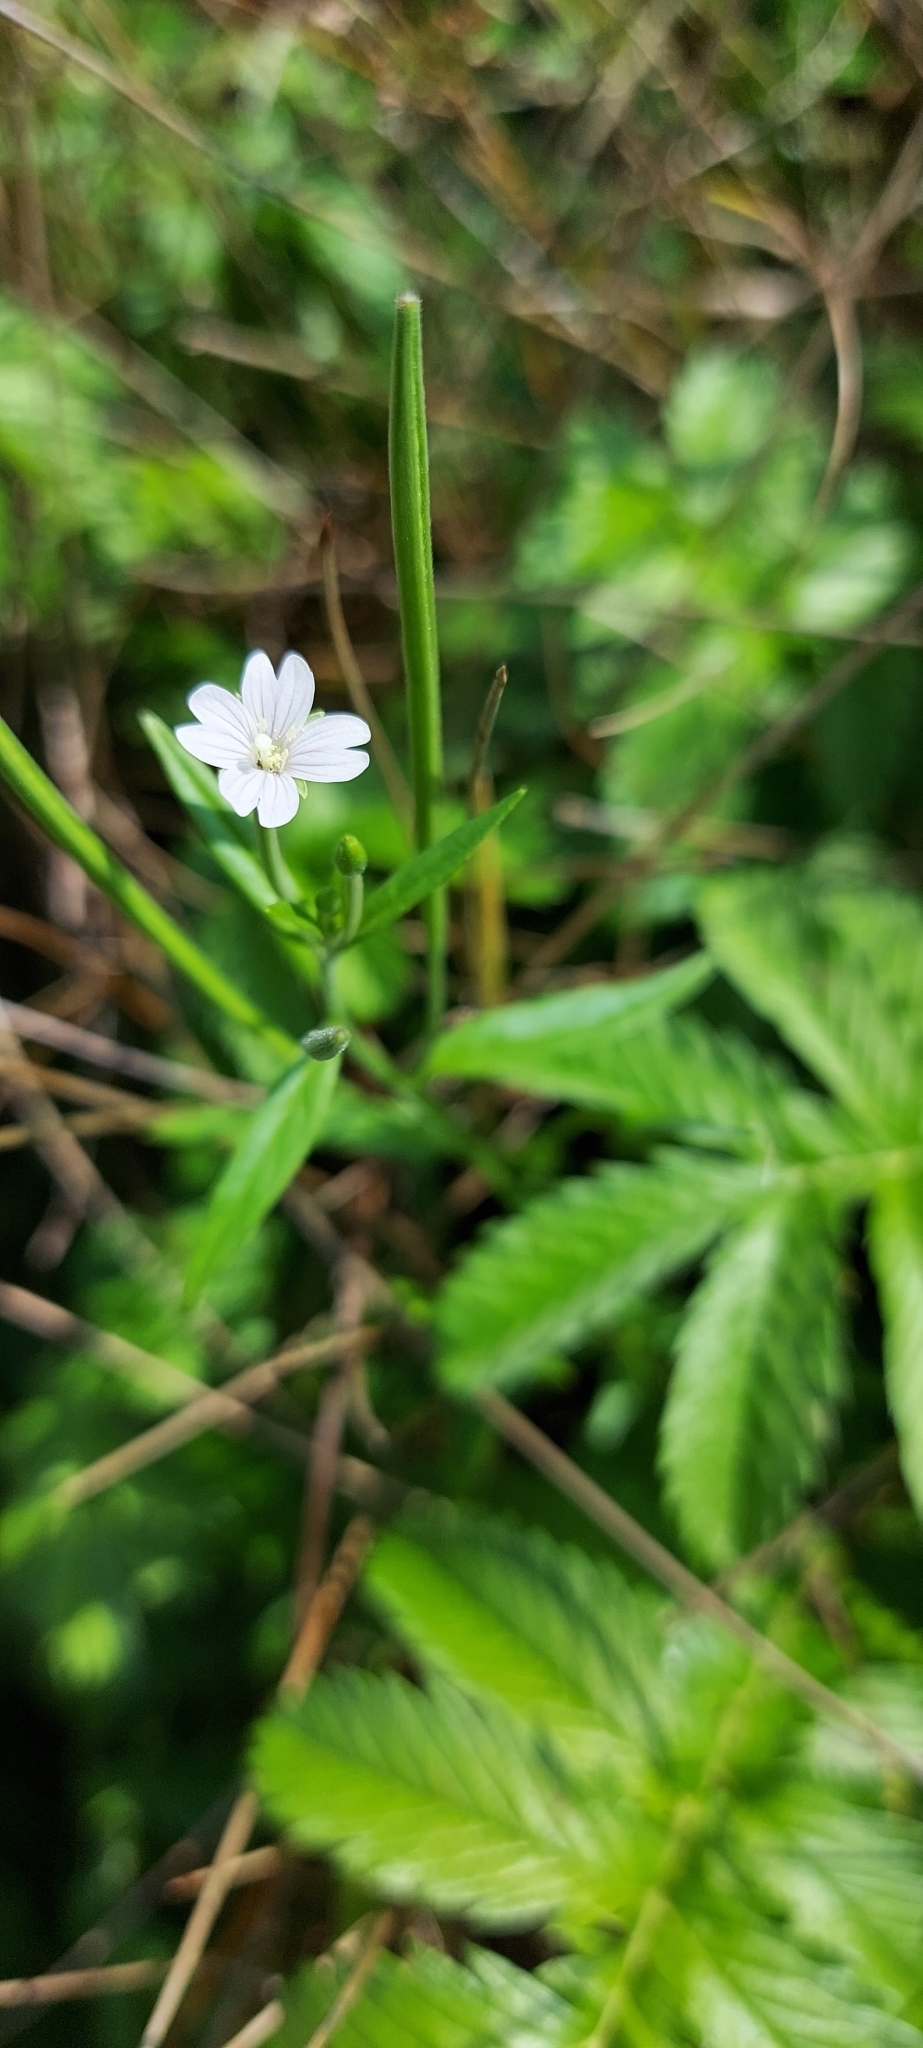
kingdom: Plantae
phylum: Tracheophyta
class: Magnoliopsida
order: Myrtales
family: Onagraceae
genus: Epilobium
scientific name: Epilobium palustre
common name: Marsh willowherb
